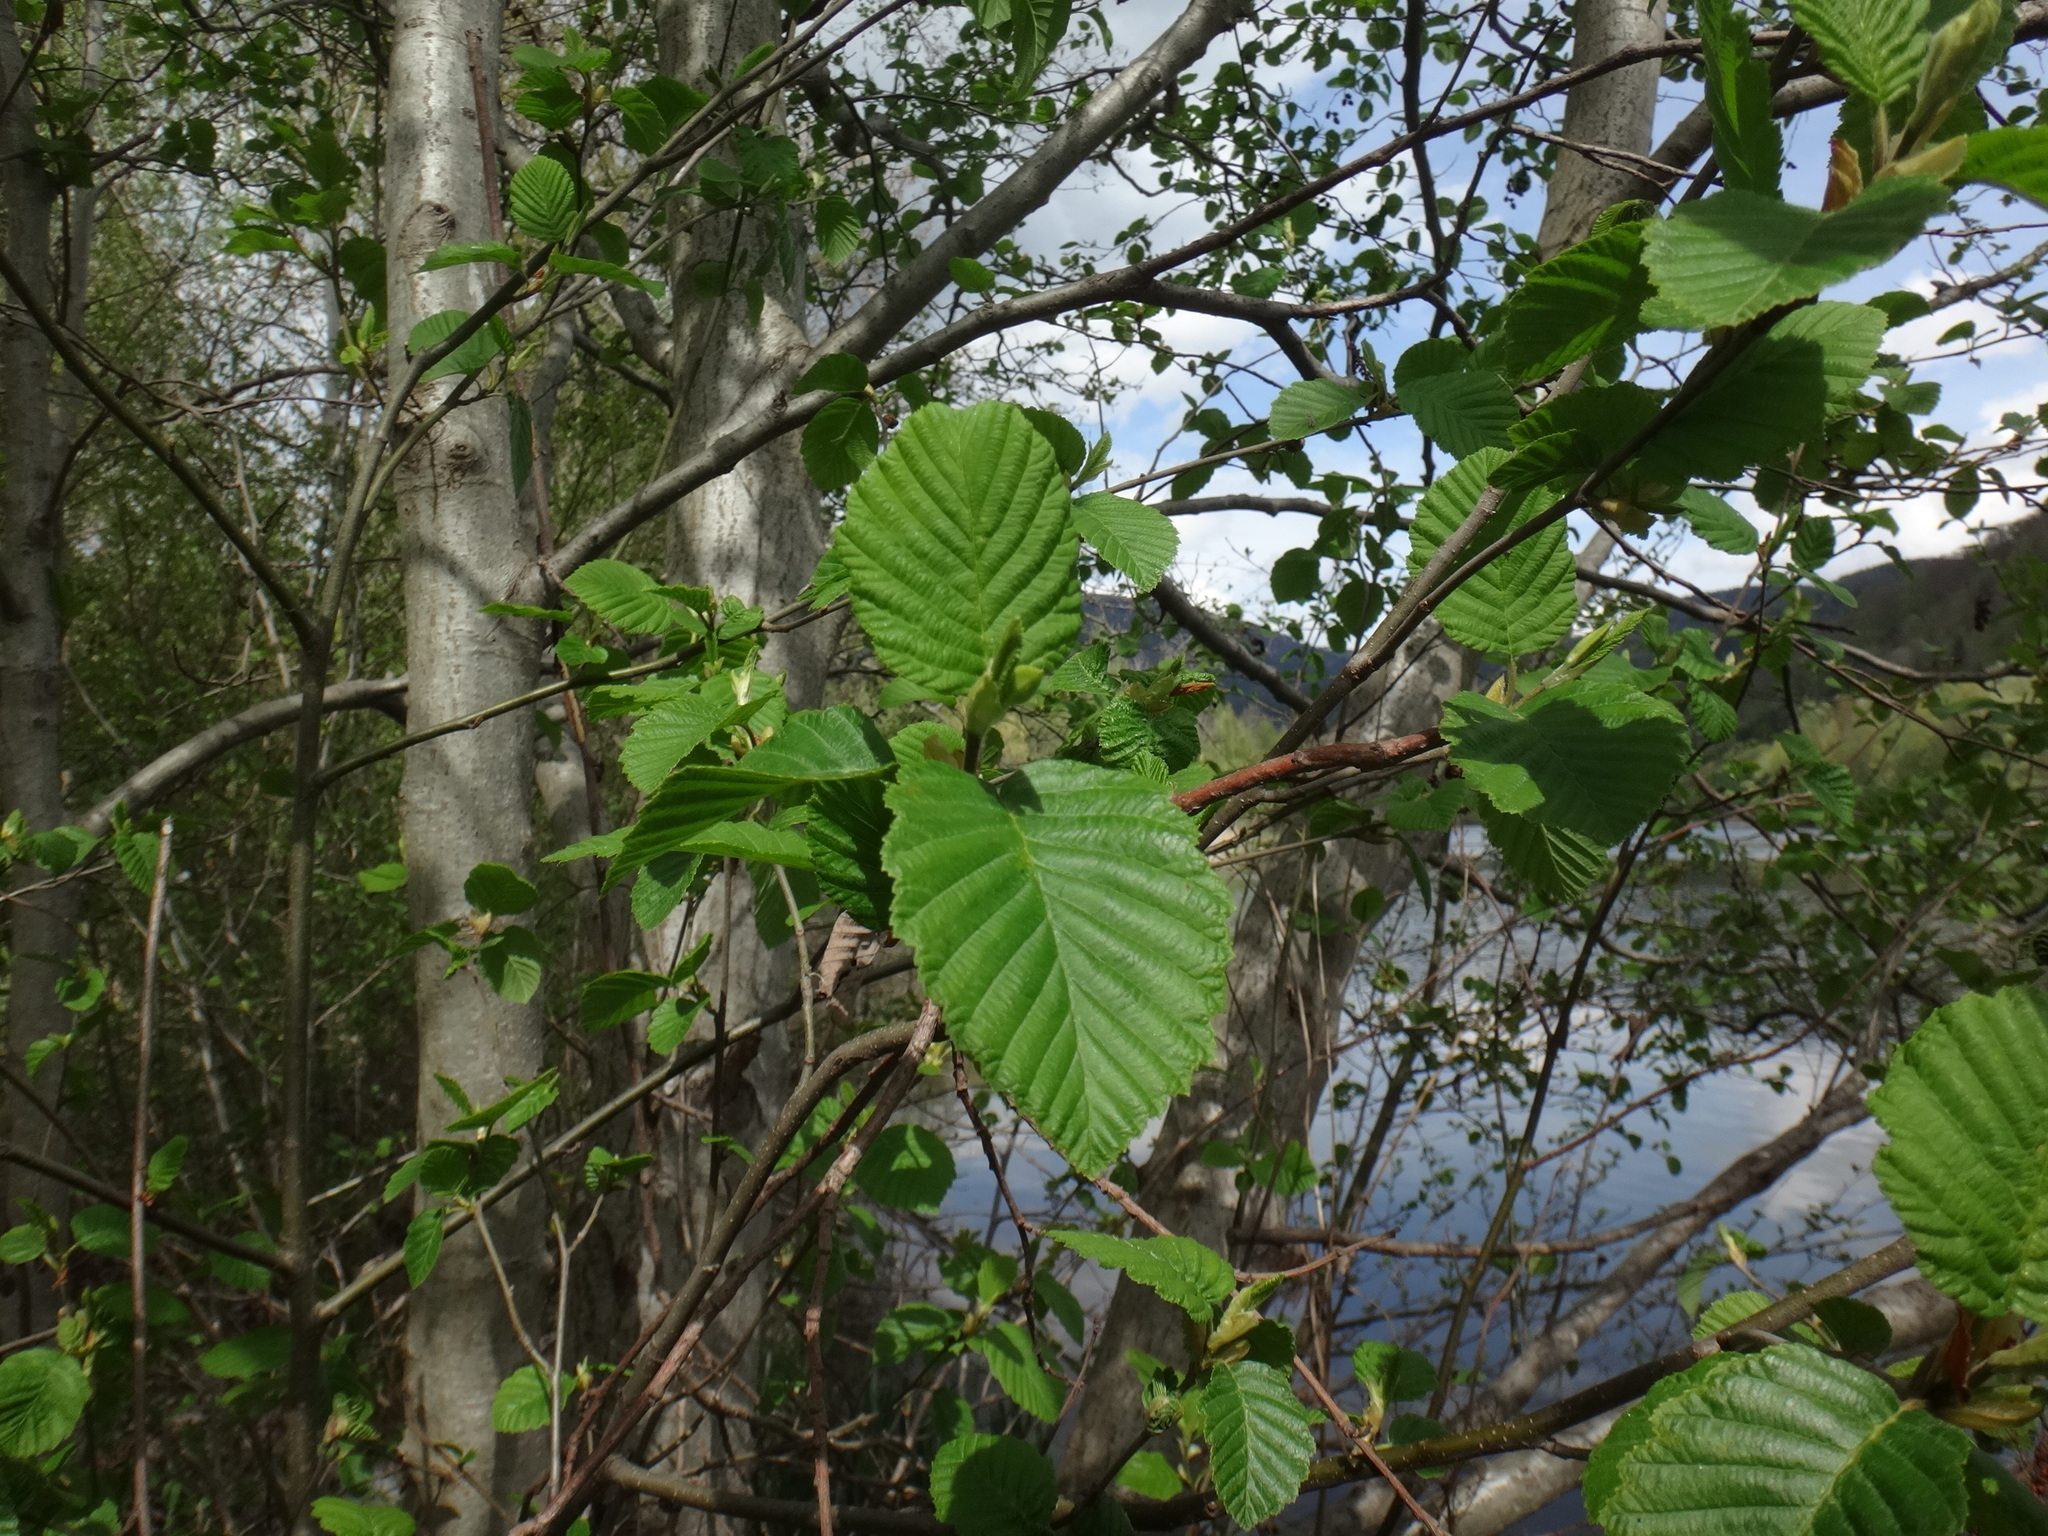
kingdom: Plantae
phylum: Tracheophyta
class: Magnoliopsida
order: Fagales
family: Betulaceae
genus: Alnus
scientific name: Alnus incana
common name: Grey alder
